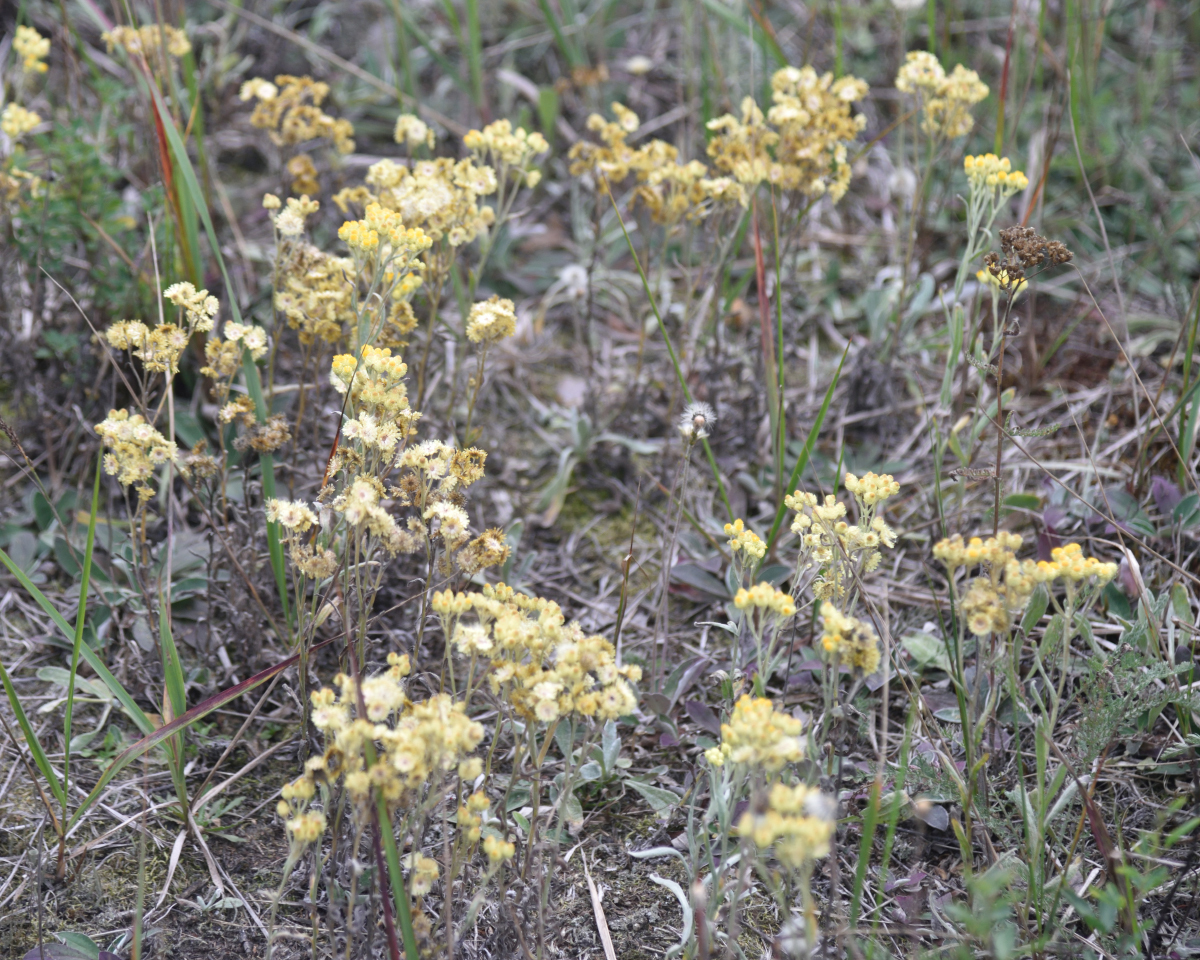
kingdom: Plantae
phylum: Tracheophyta
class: Magnoliopsida
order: Asterales
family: Asteraceae
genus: Helichrysum
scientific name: Helichrysum arenarium
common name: Strawflower
